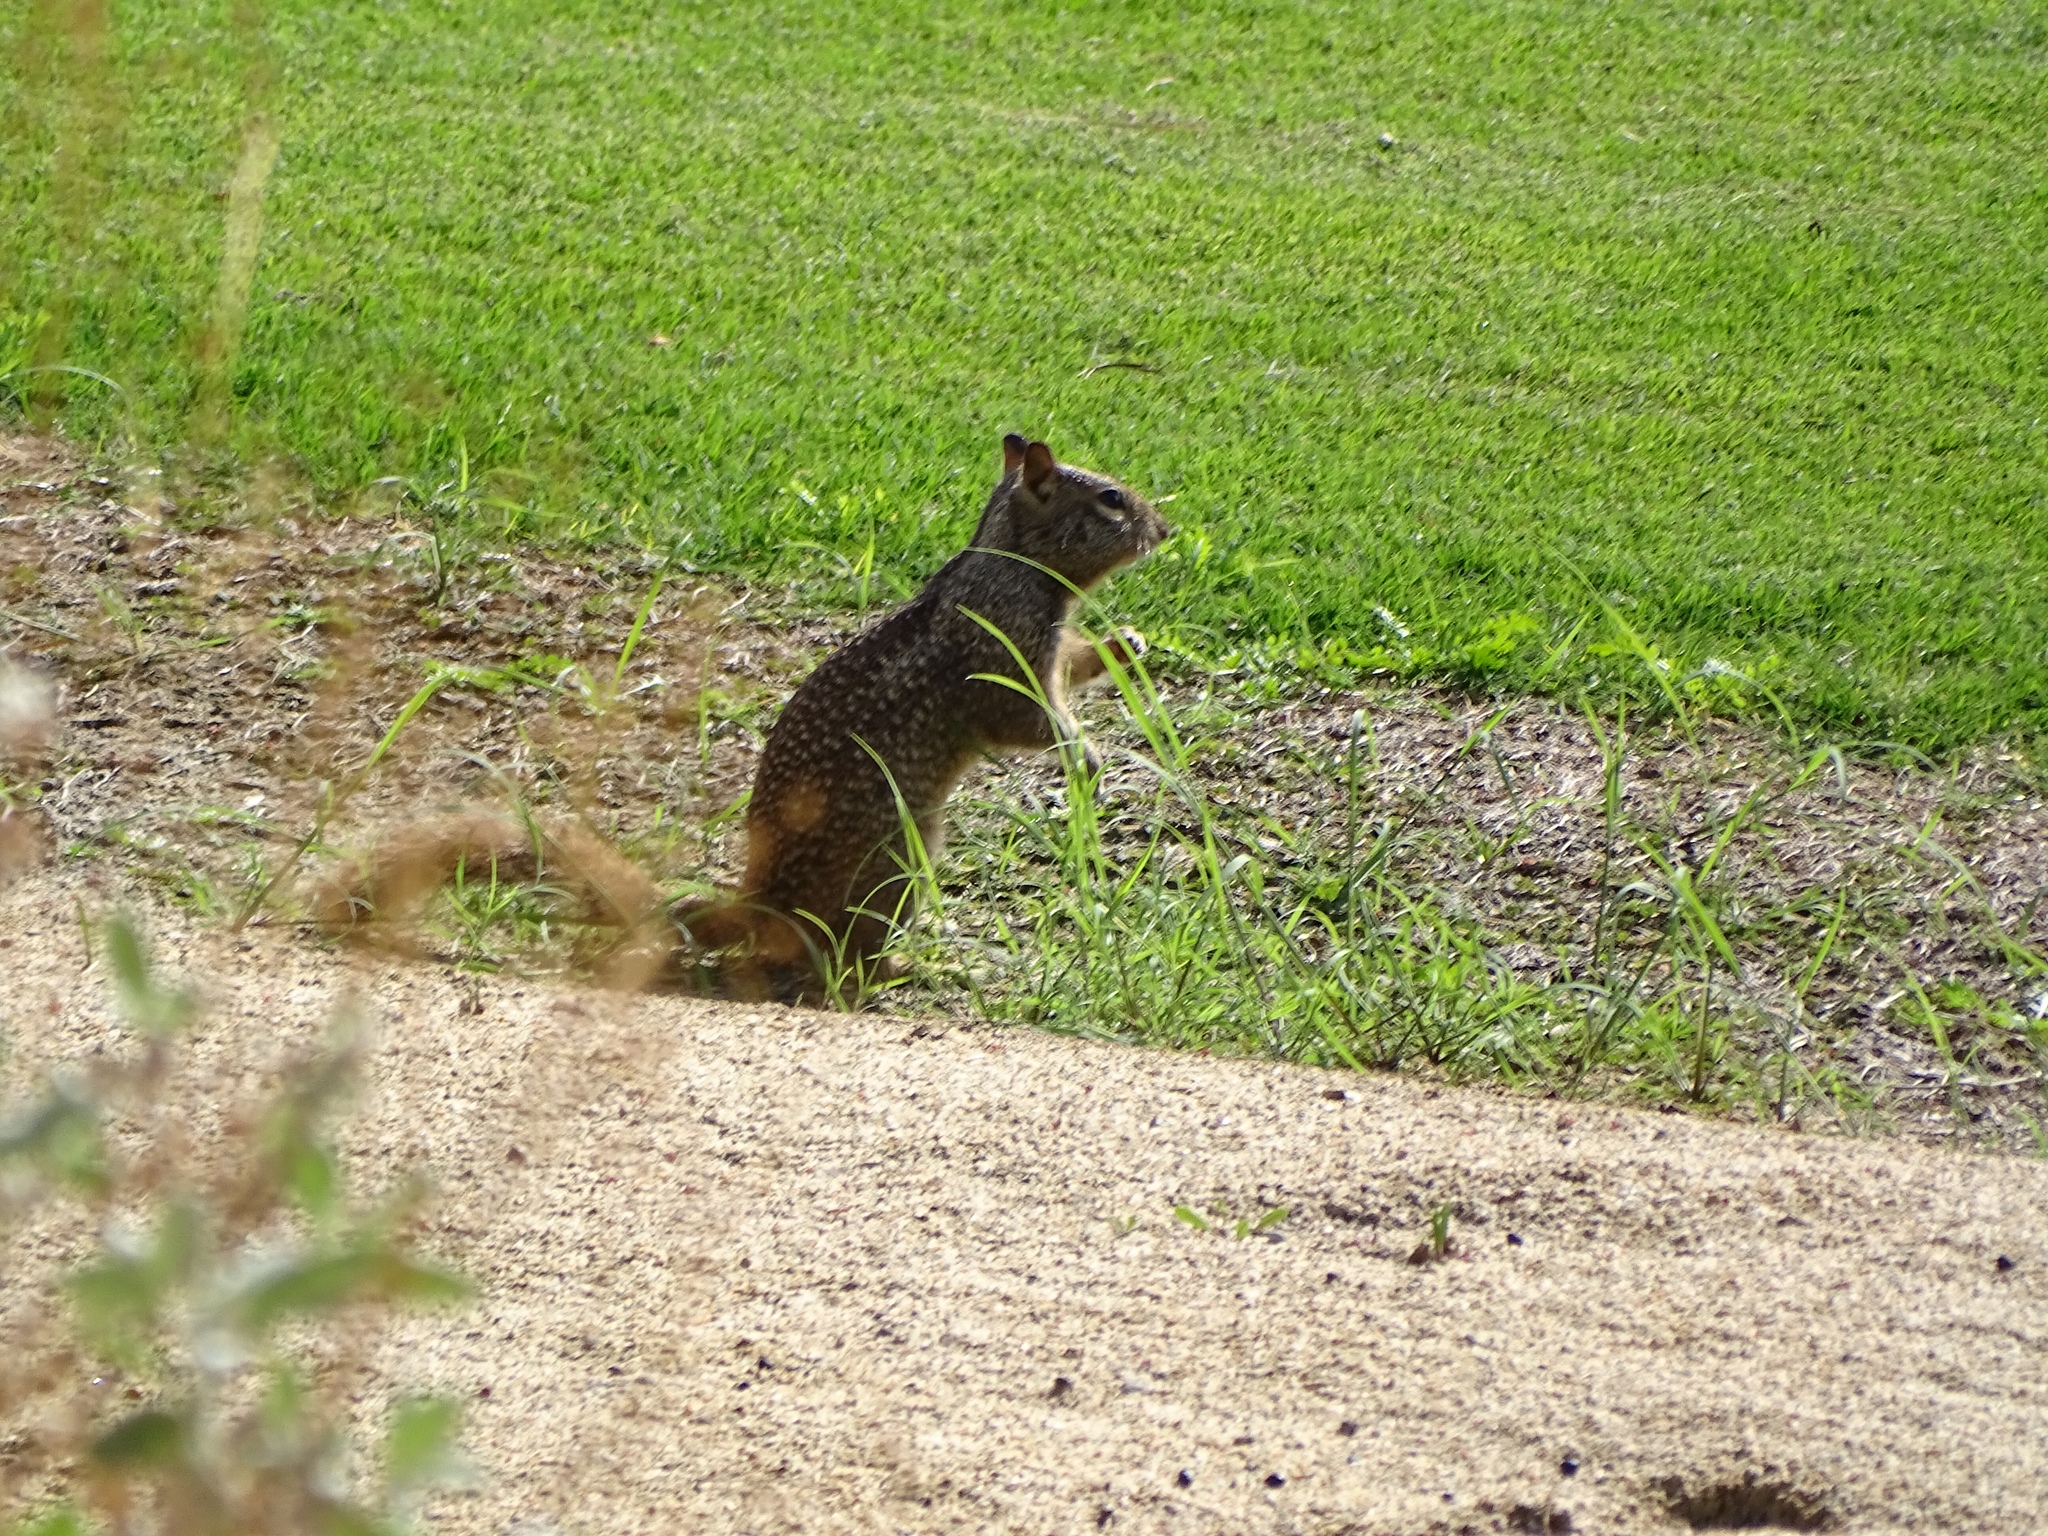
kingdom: Animalia
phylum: Chordata
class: Mammalia
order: Rodentia
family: Sciuridae
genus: Otospermophilus
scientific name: Otospermophilus beecheyi
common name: California ground squirrel
